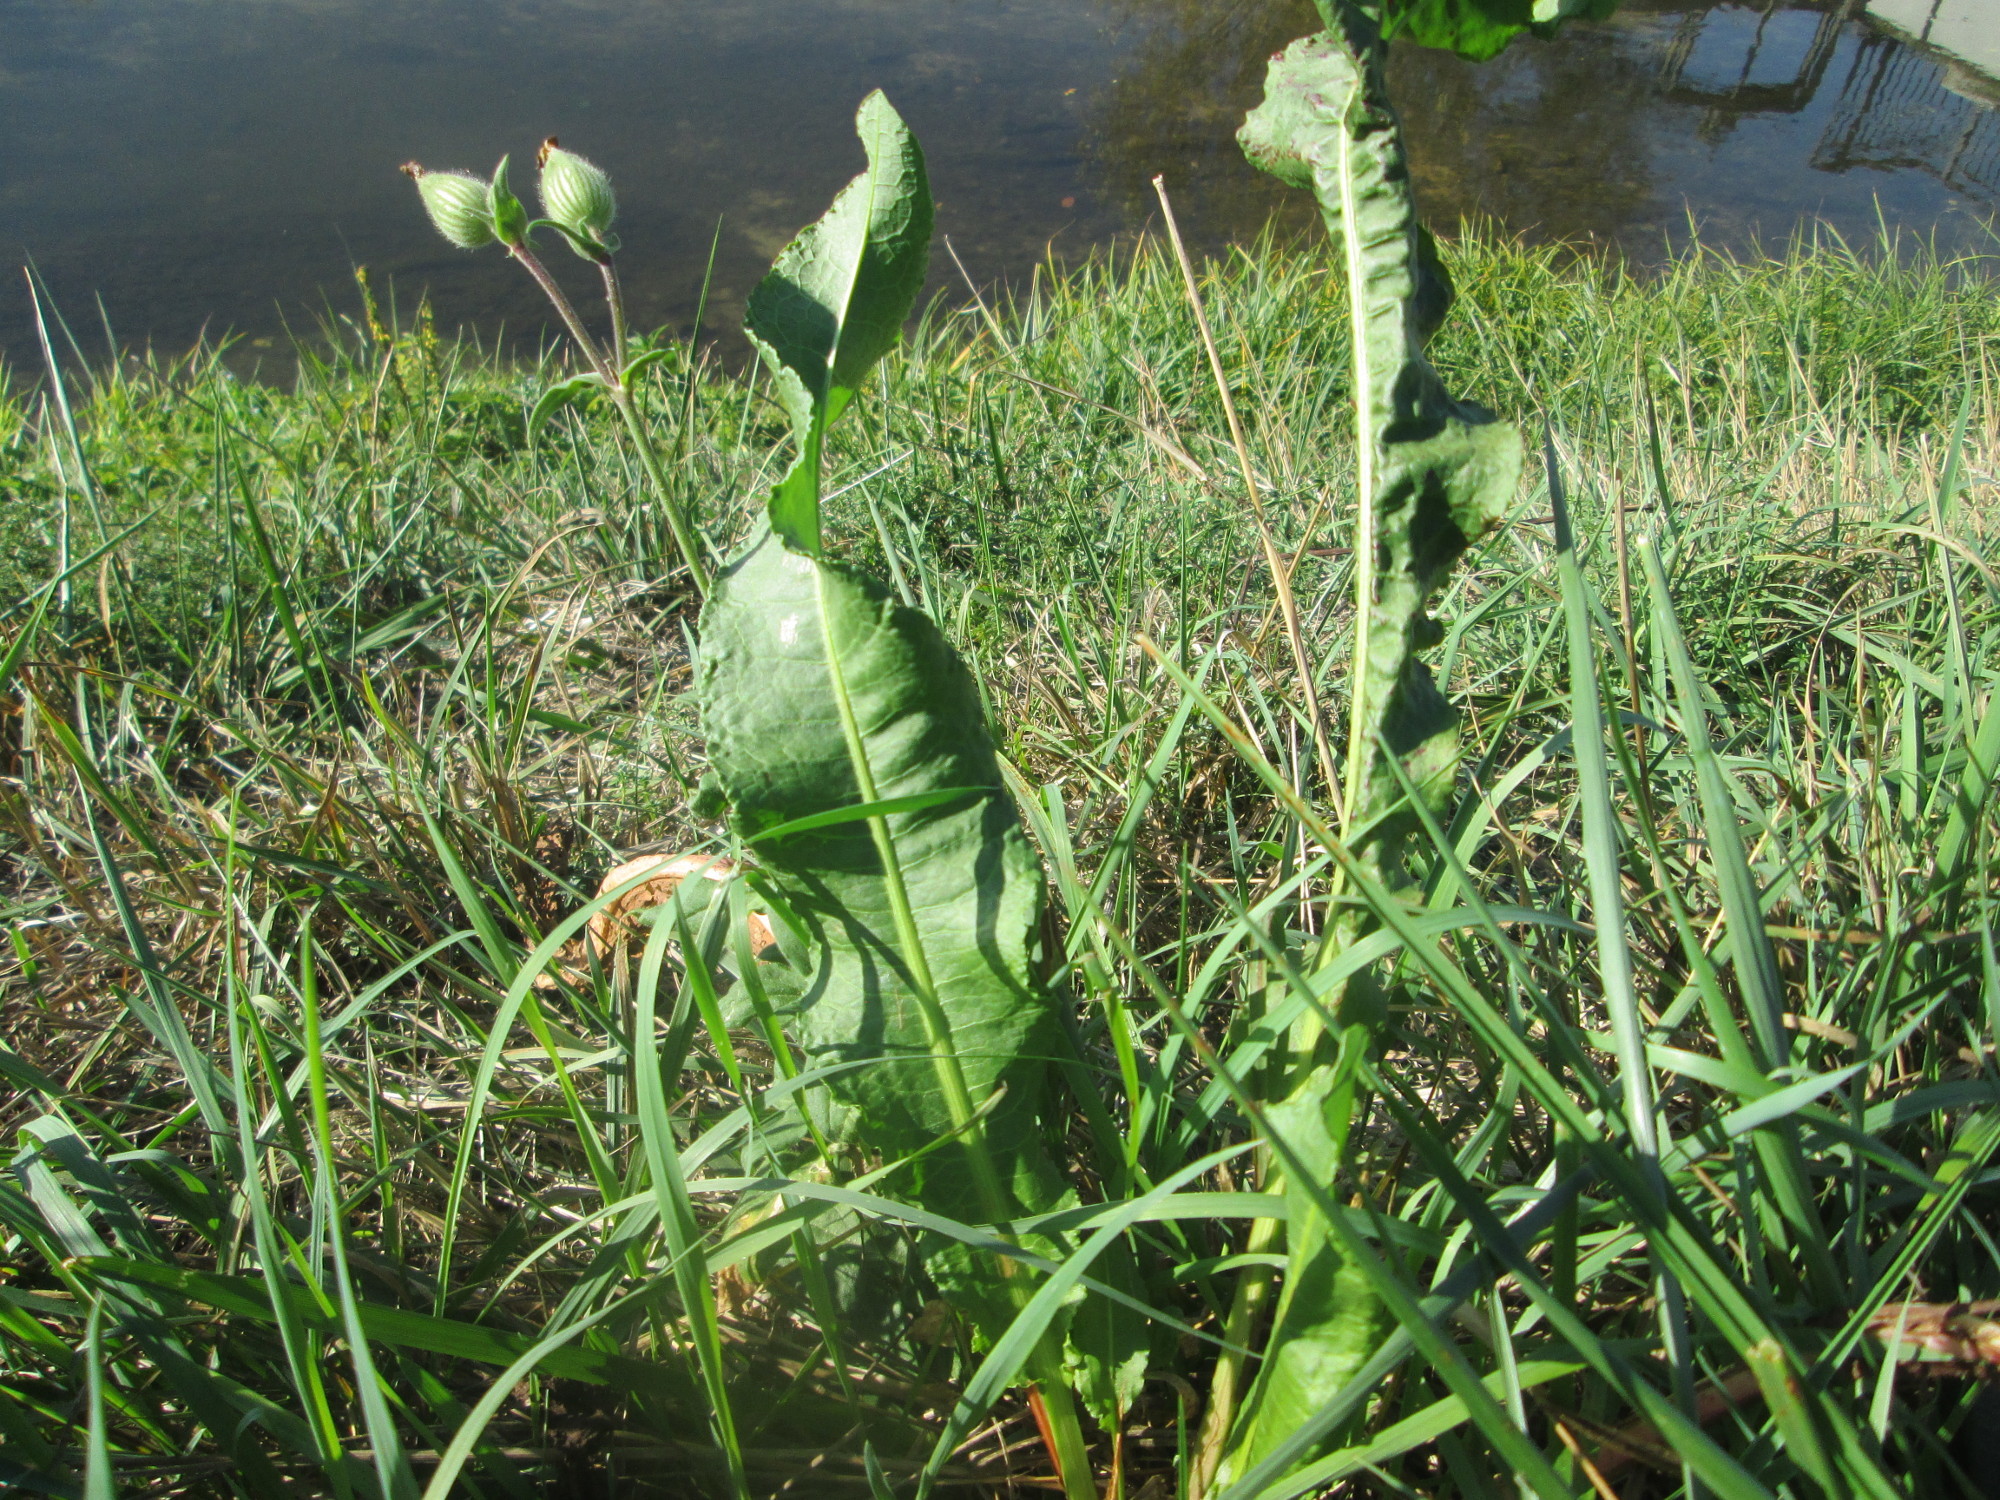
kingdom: Plantae
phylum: Tracheophyta
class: Magnoliopsida
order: Brassicales
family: Brassicaceae
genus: Armoracia
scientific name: Armoracia rusticana
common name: Horseradish
